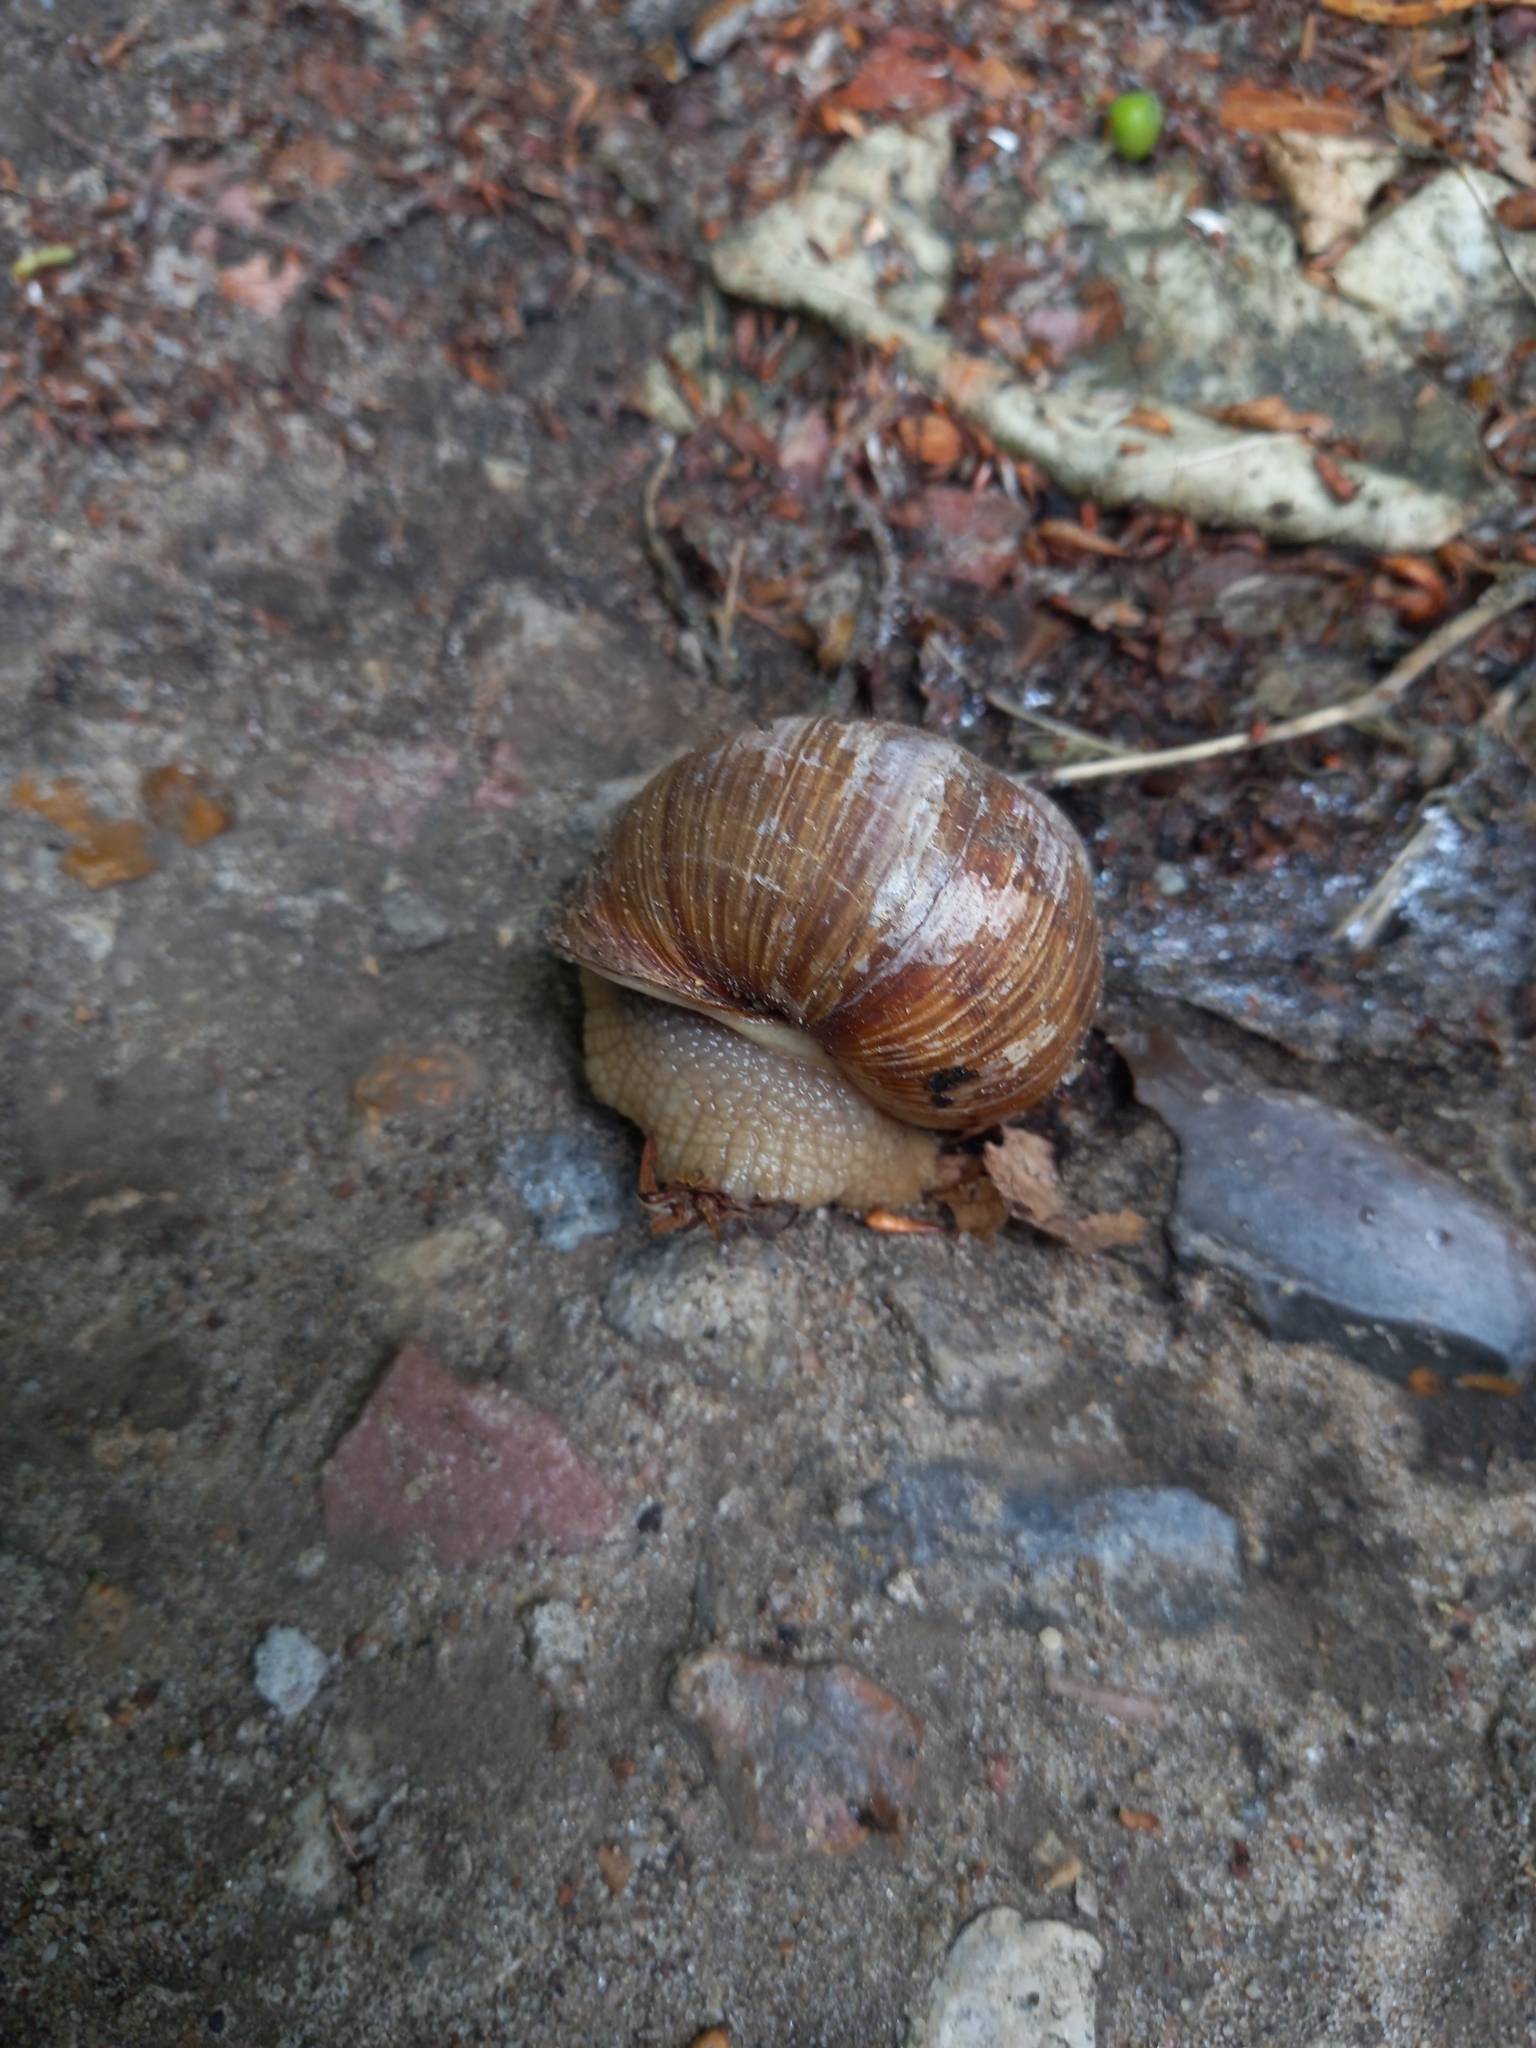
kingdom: Animalia
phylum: Mollusca
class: Gastropoda
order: Stylommatophora
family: Helicidae
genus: Helix
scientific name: Helix pomatia
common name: Roman snail
